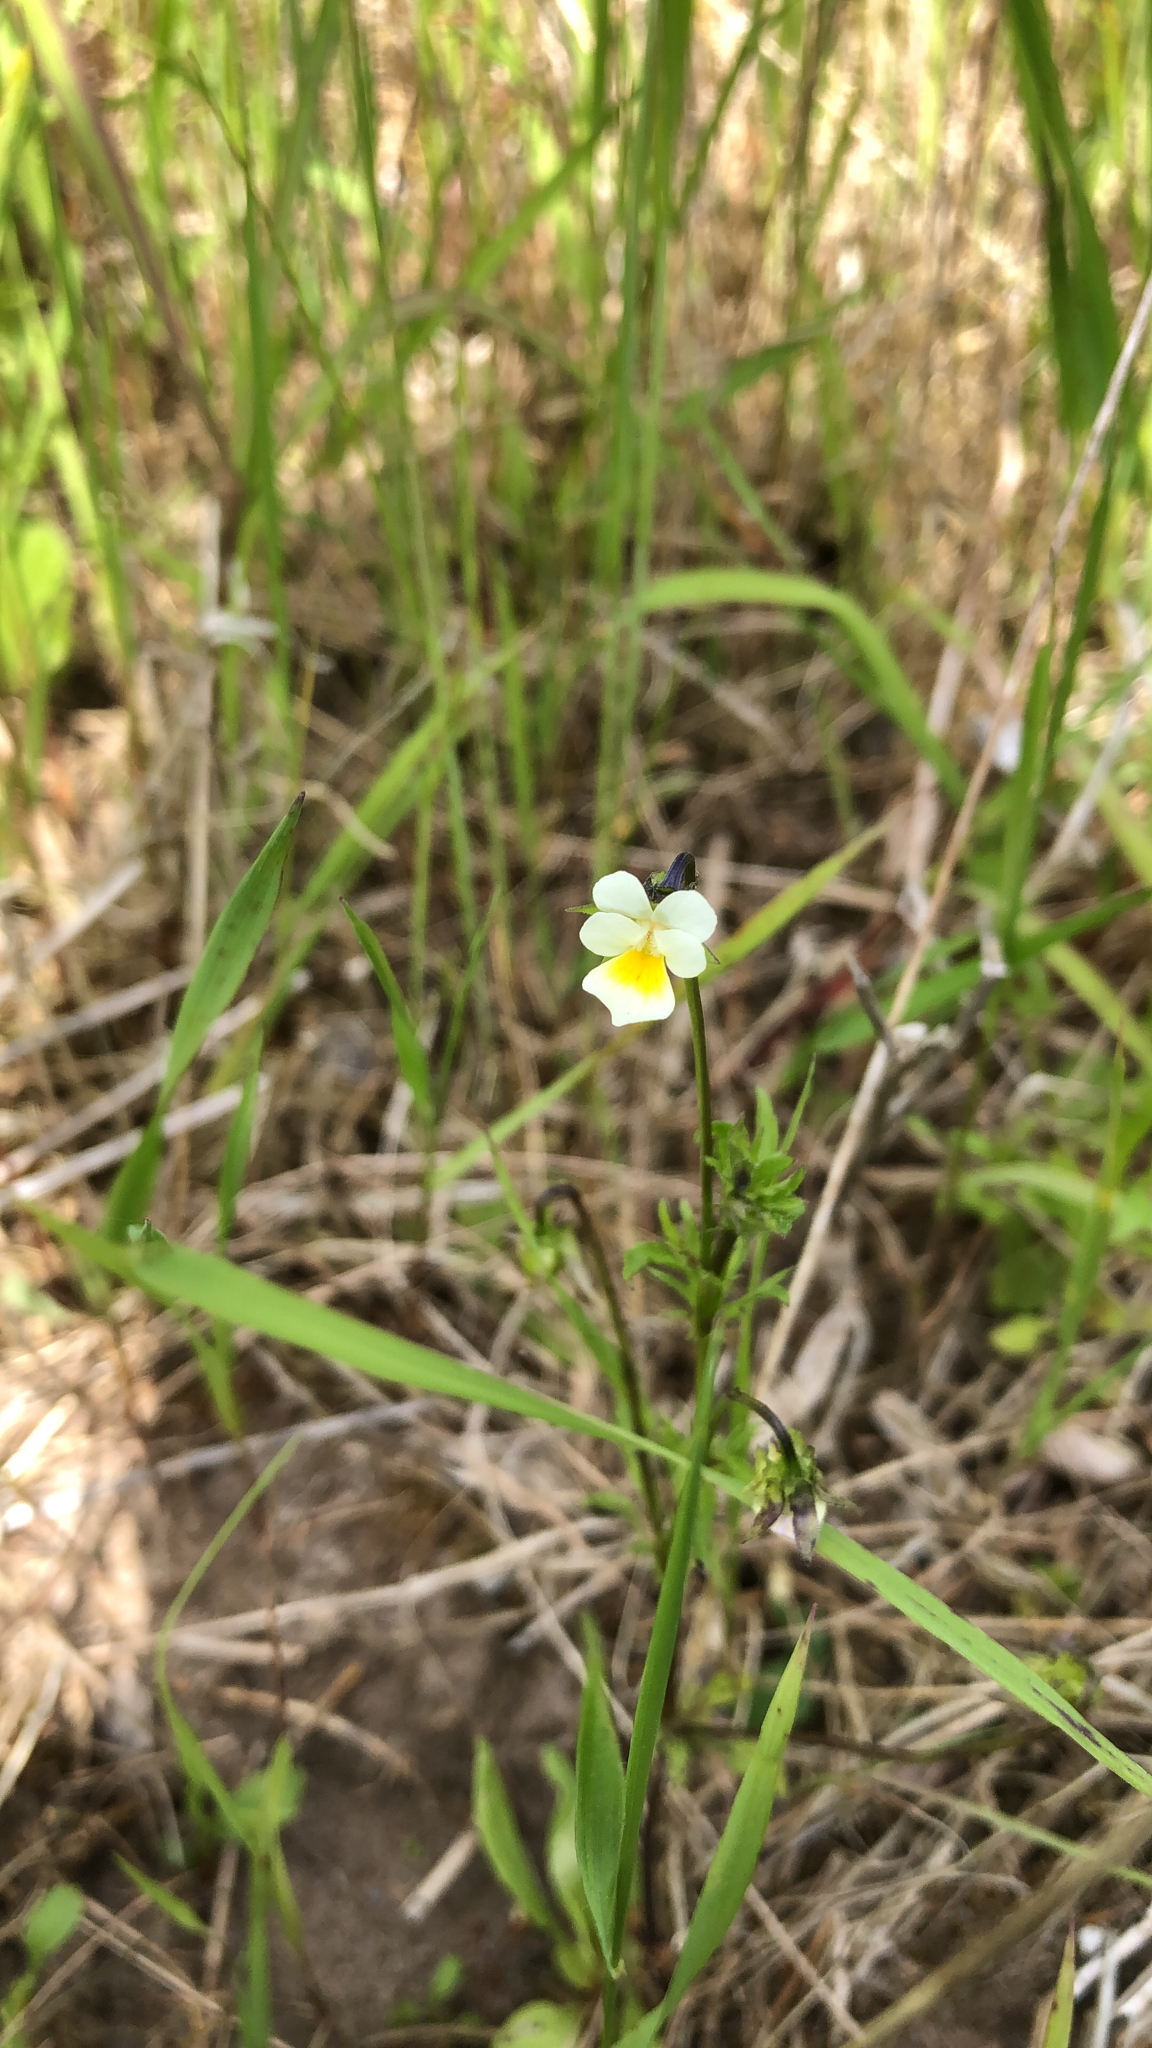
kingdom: Plantae
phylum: Tracheophyta
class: Magnoliopsida
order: Malpighiales
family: Violaceae
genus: Viola
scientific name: Viola arvensis
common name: Field pansy
